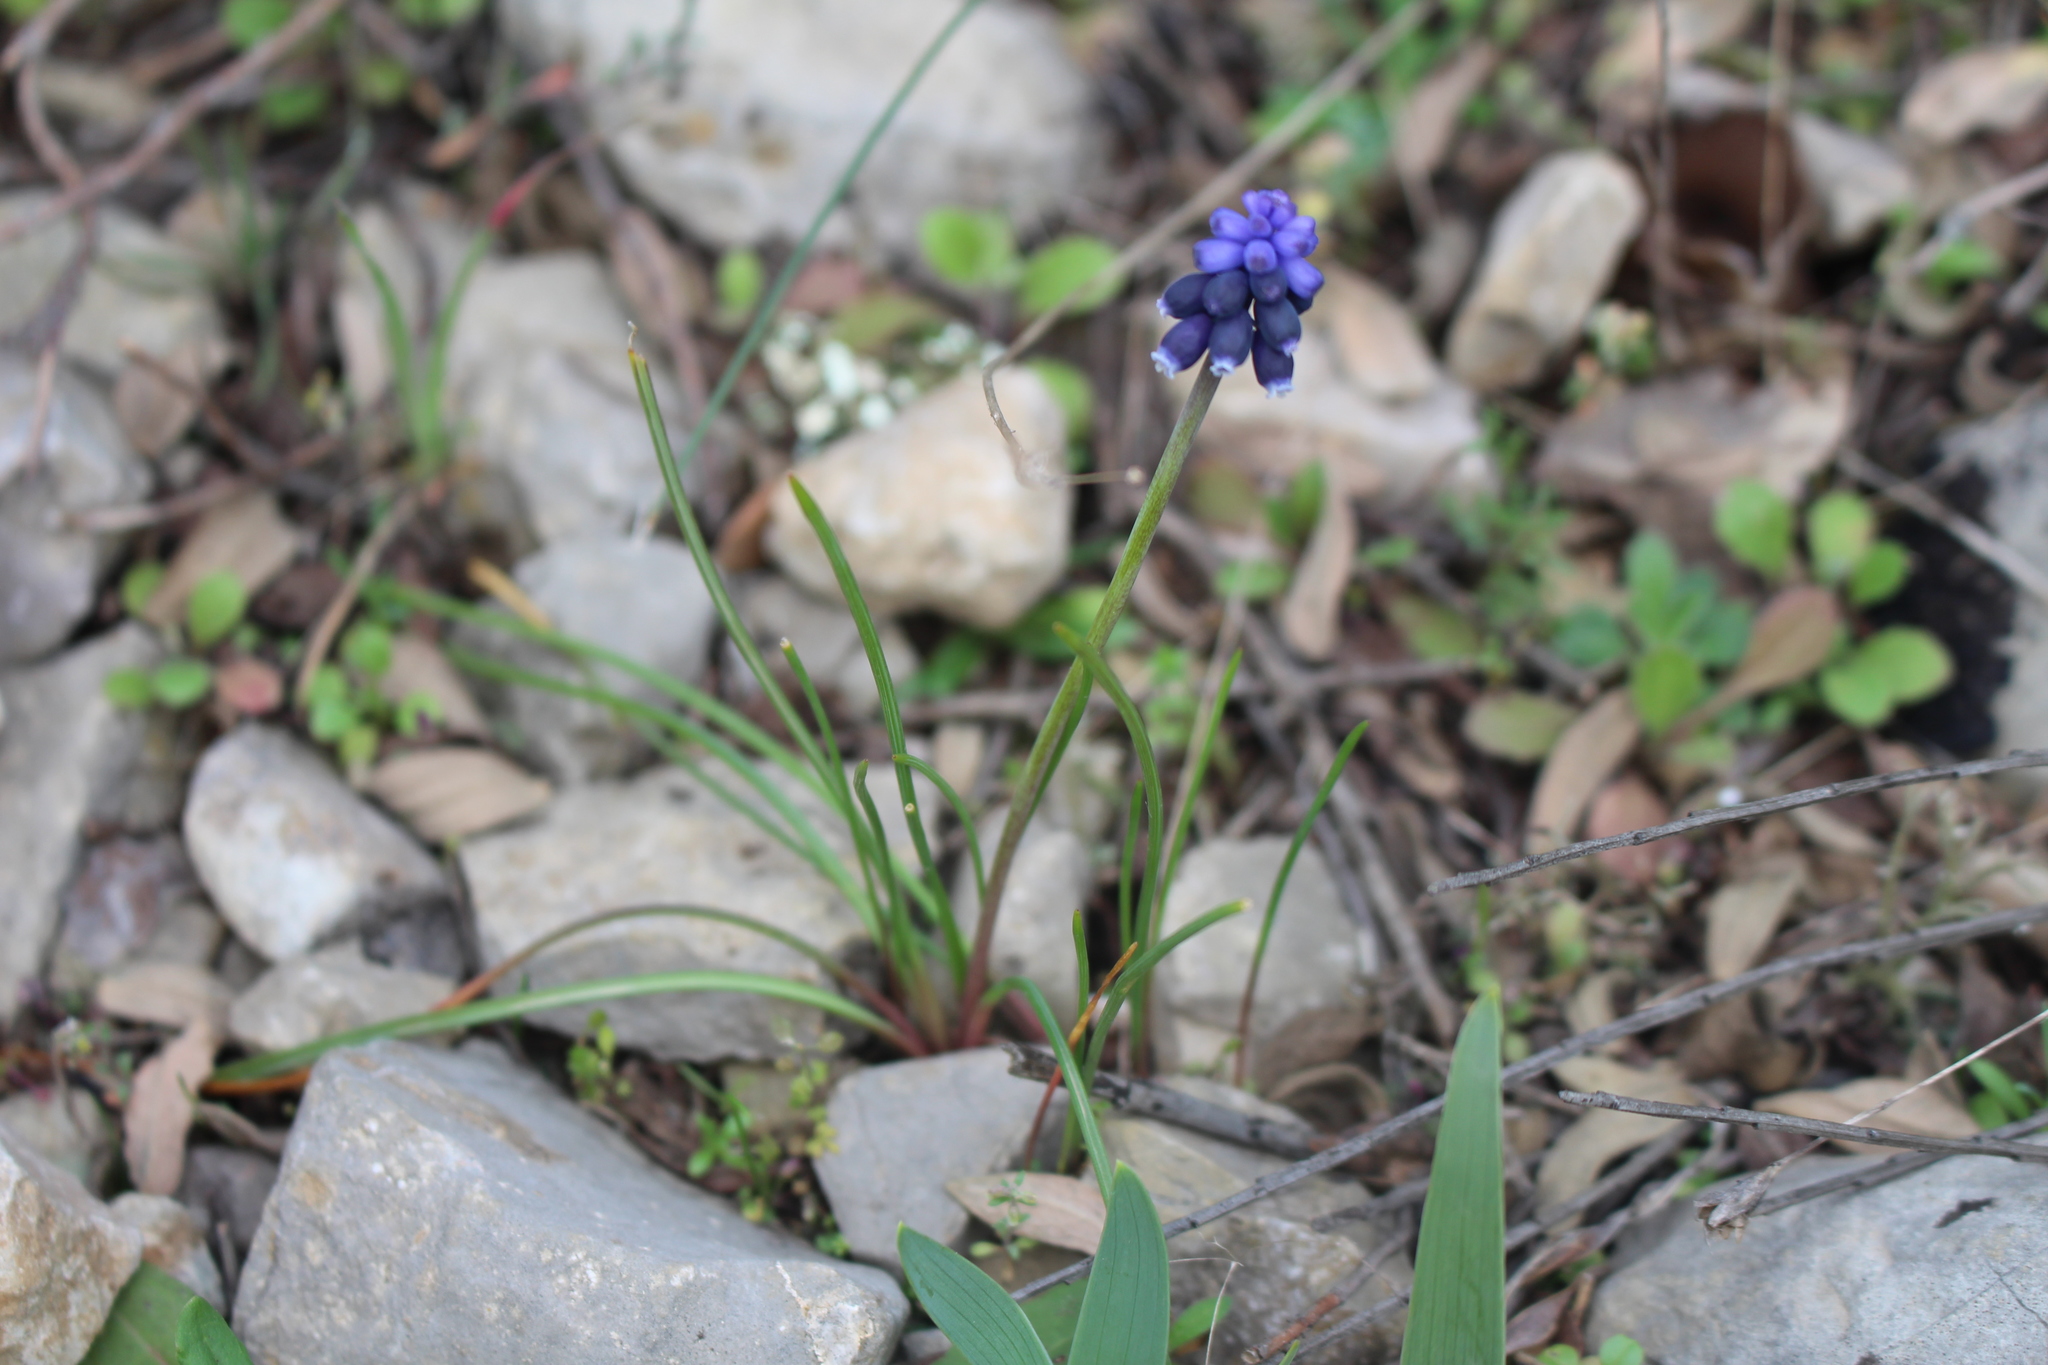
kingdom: Plantae
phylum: Tracheophyta
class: Liliopsida
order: Asparagales
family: Asparagaceae
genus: Muscari
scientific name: Muscari neglectum
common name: Grape-hyacinth
